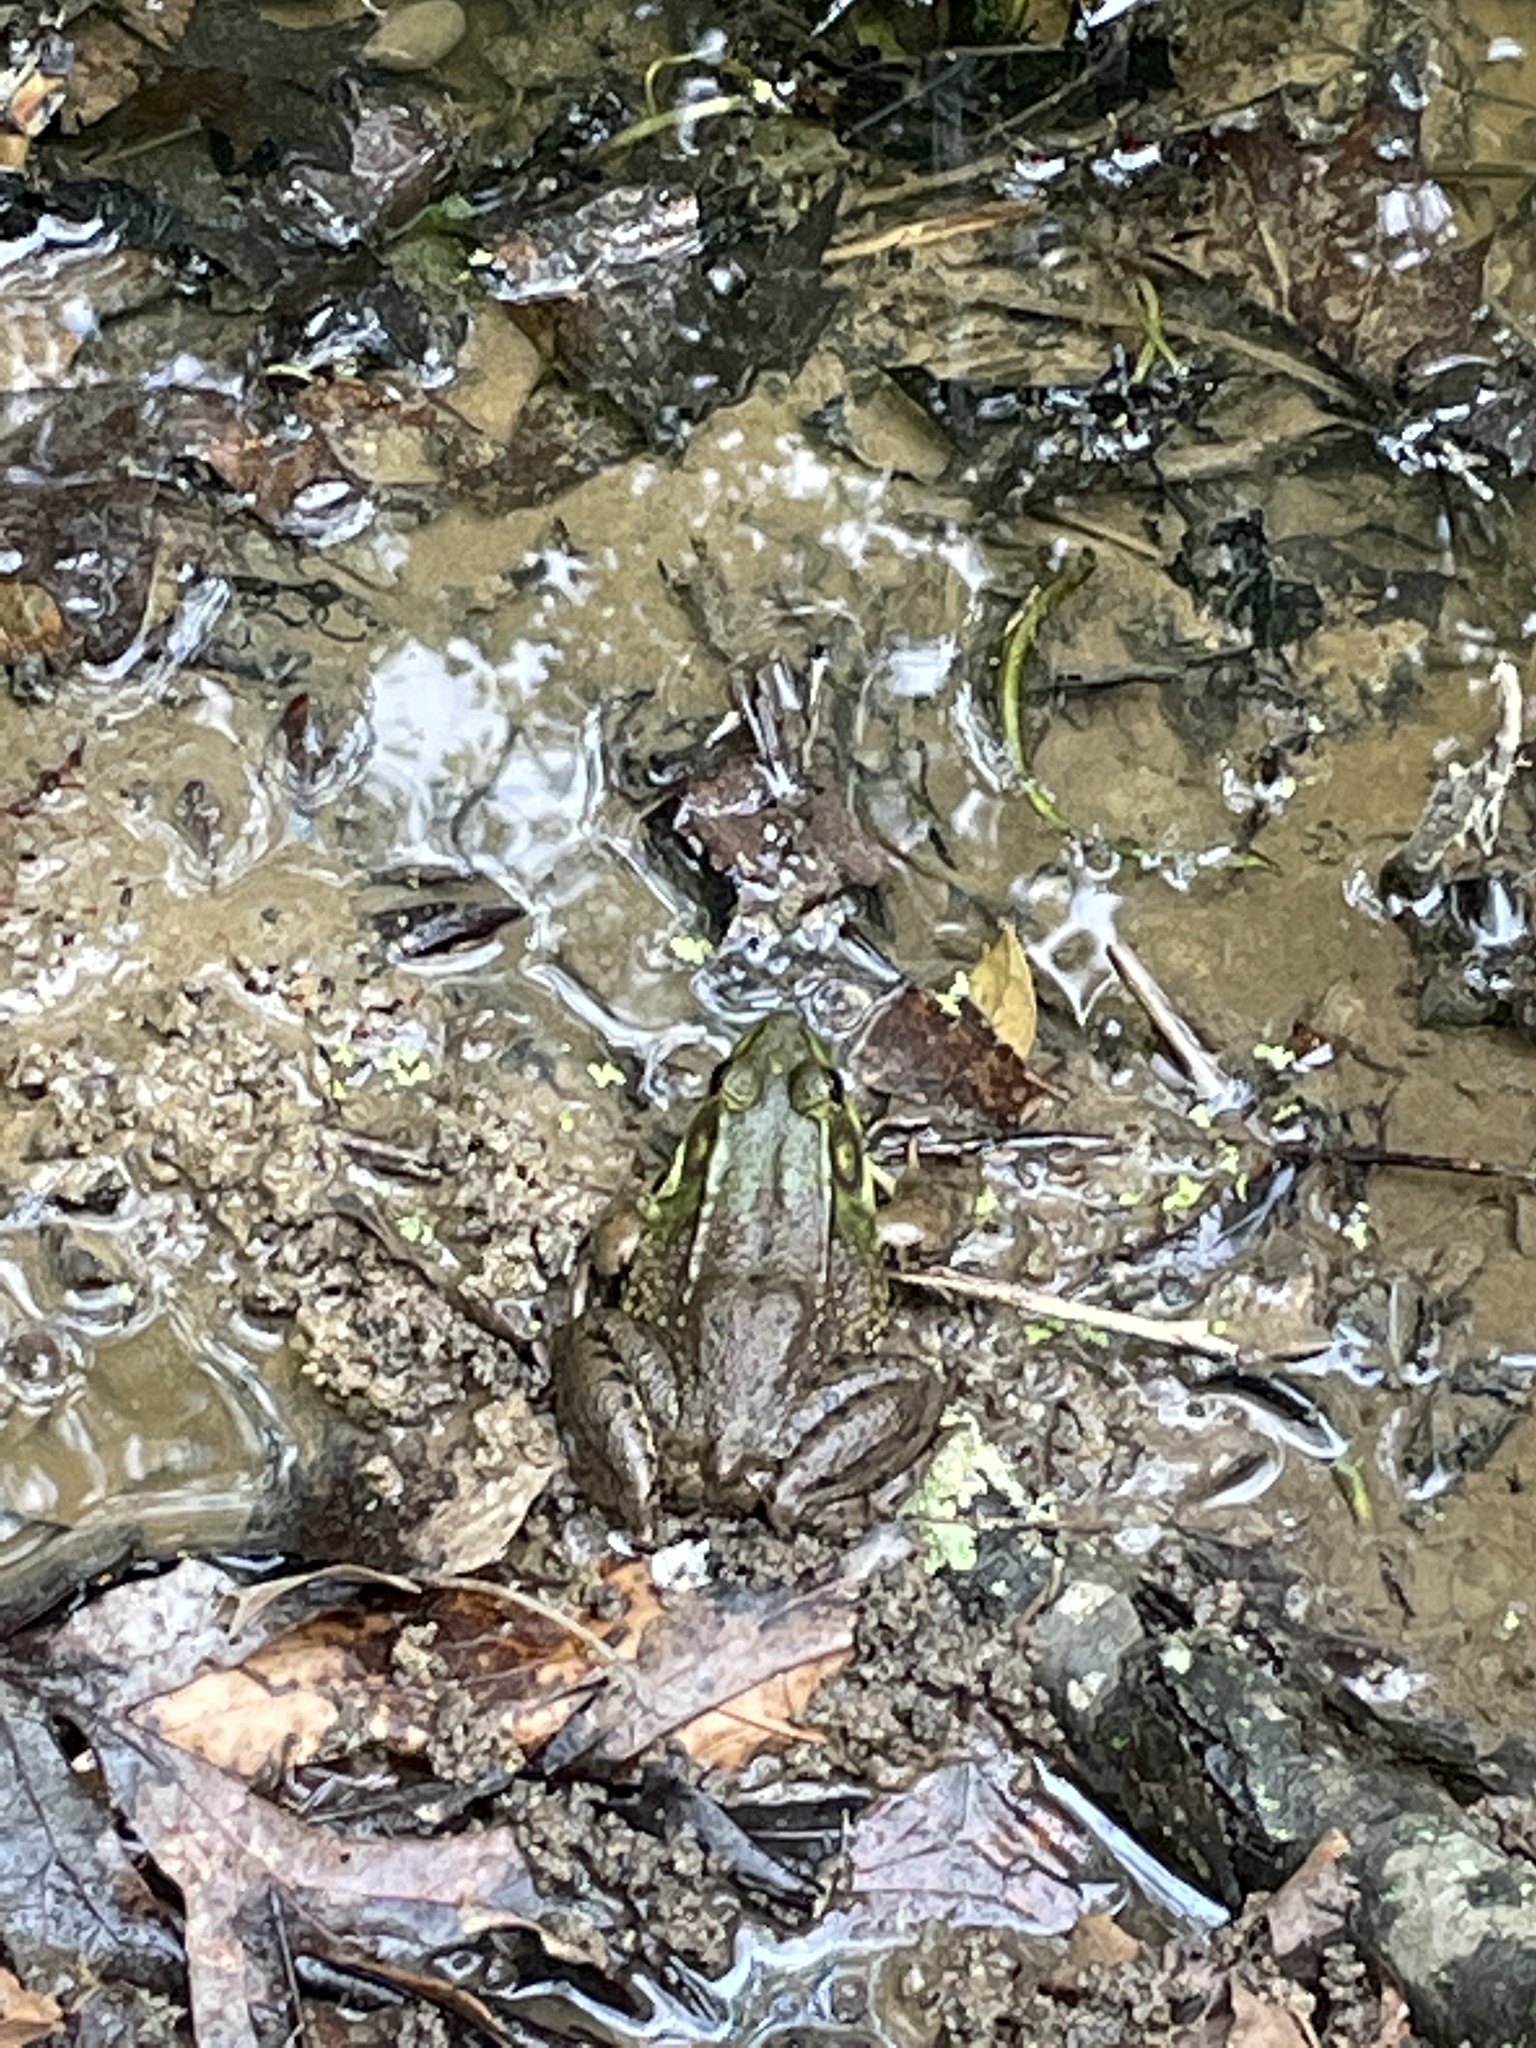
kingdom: Animalia
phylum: Chordata
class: Amphibia
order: Anura
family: Ranidae
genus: Lithobates
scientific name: Lithobates clamitans
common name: Green frog
